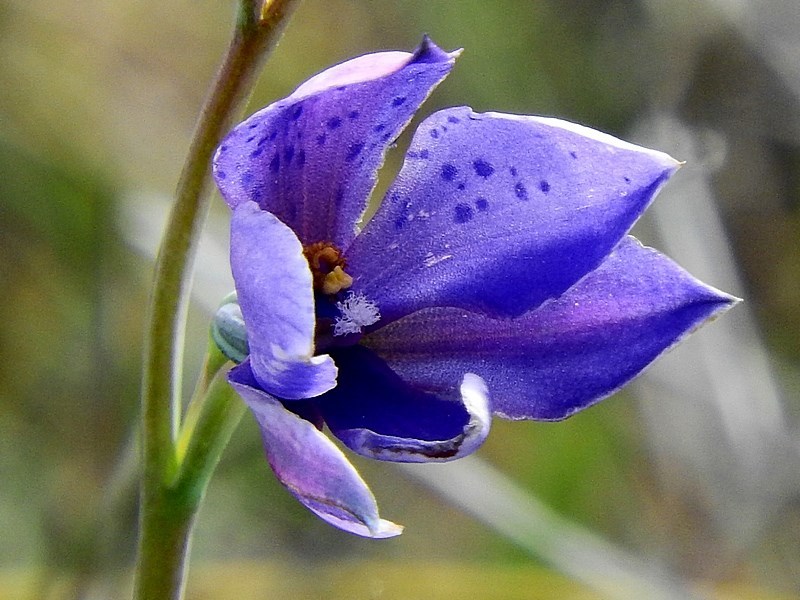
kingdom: Plantae
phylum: Tracheophyta
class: Liliopsida
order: Asparagales
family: Orchidaceae
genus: Thelymitra
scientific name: Thelymitra ixioides
